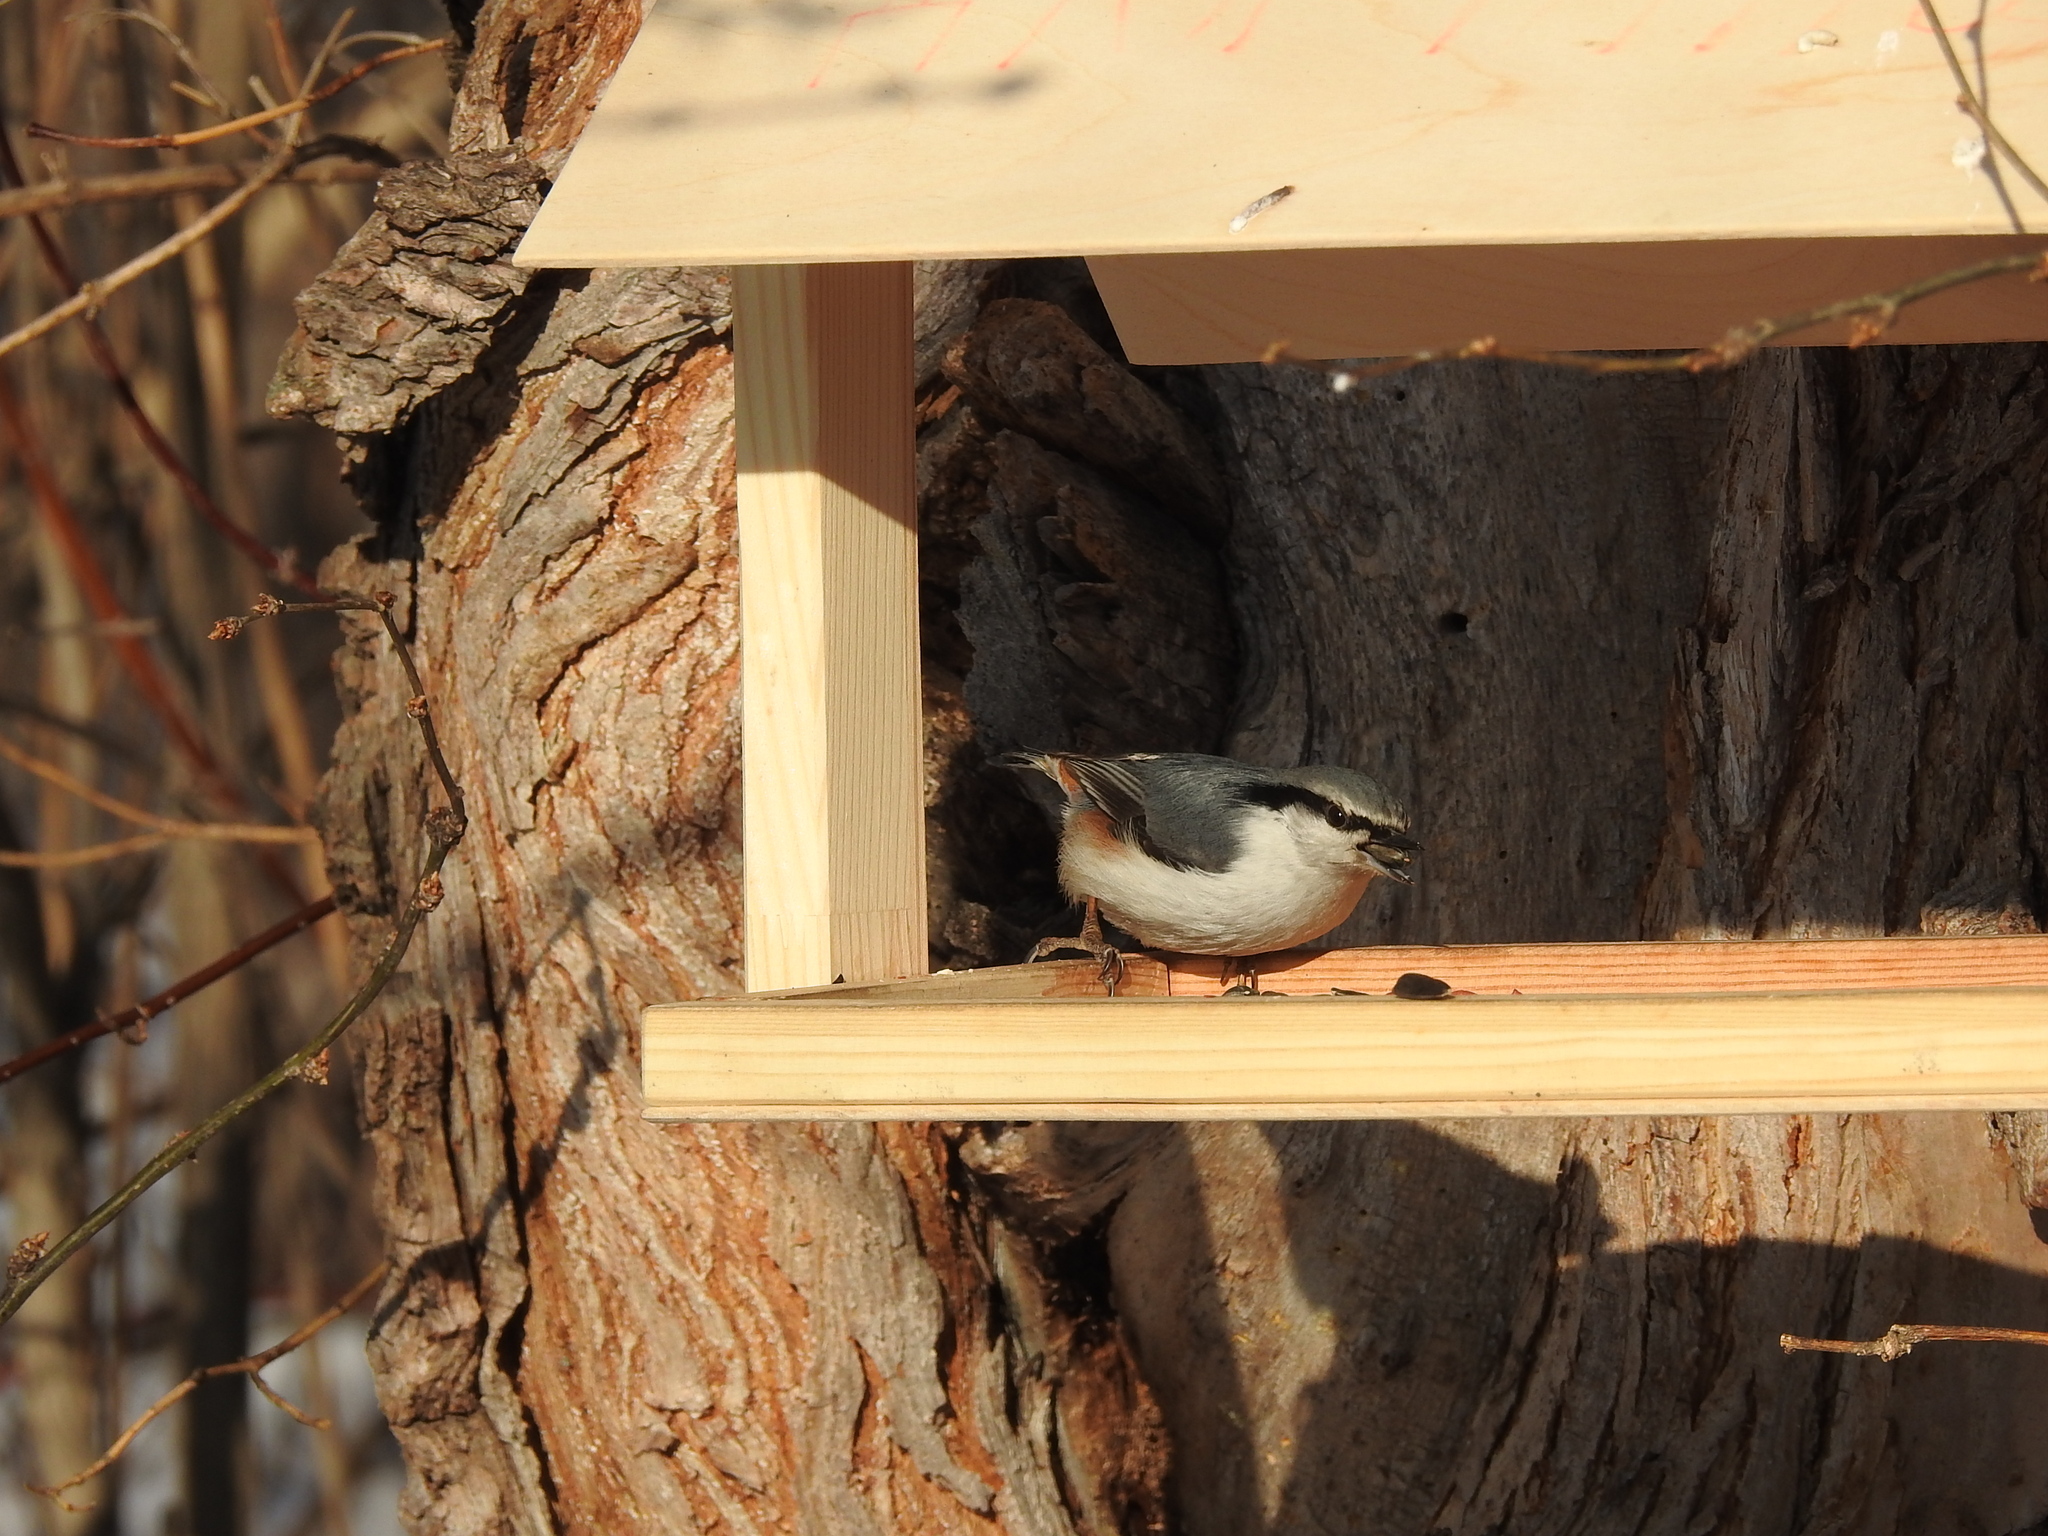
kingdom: Animalia
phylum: Chordata
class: Aves
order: Passeriformes
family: Sittidae
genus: Sitta
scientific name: Sitta europaea
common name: Eurasian nuthatch
